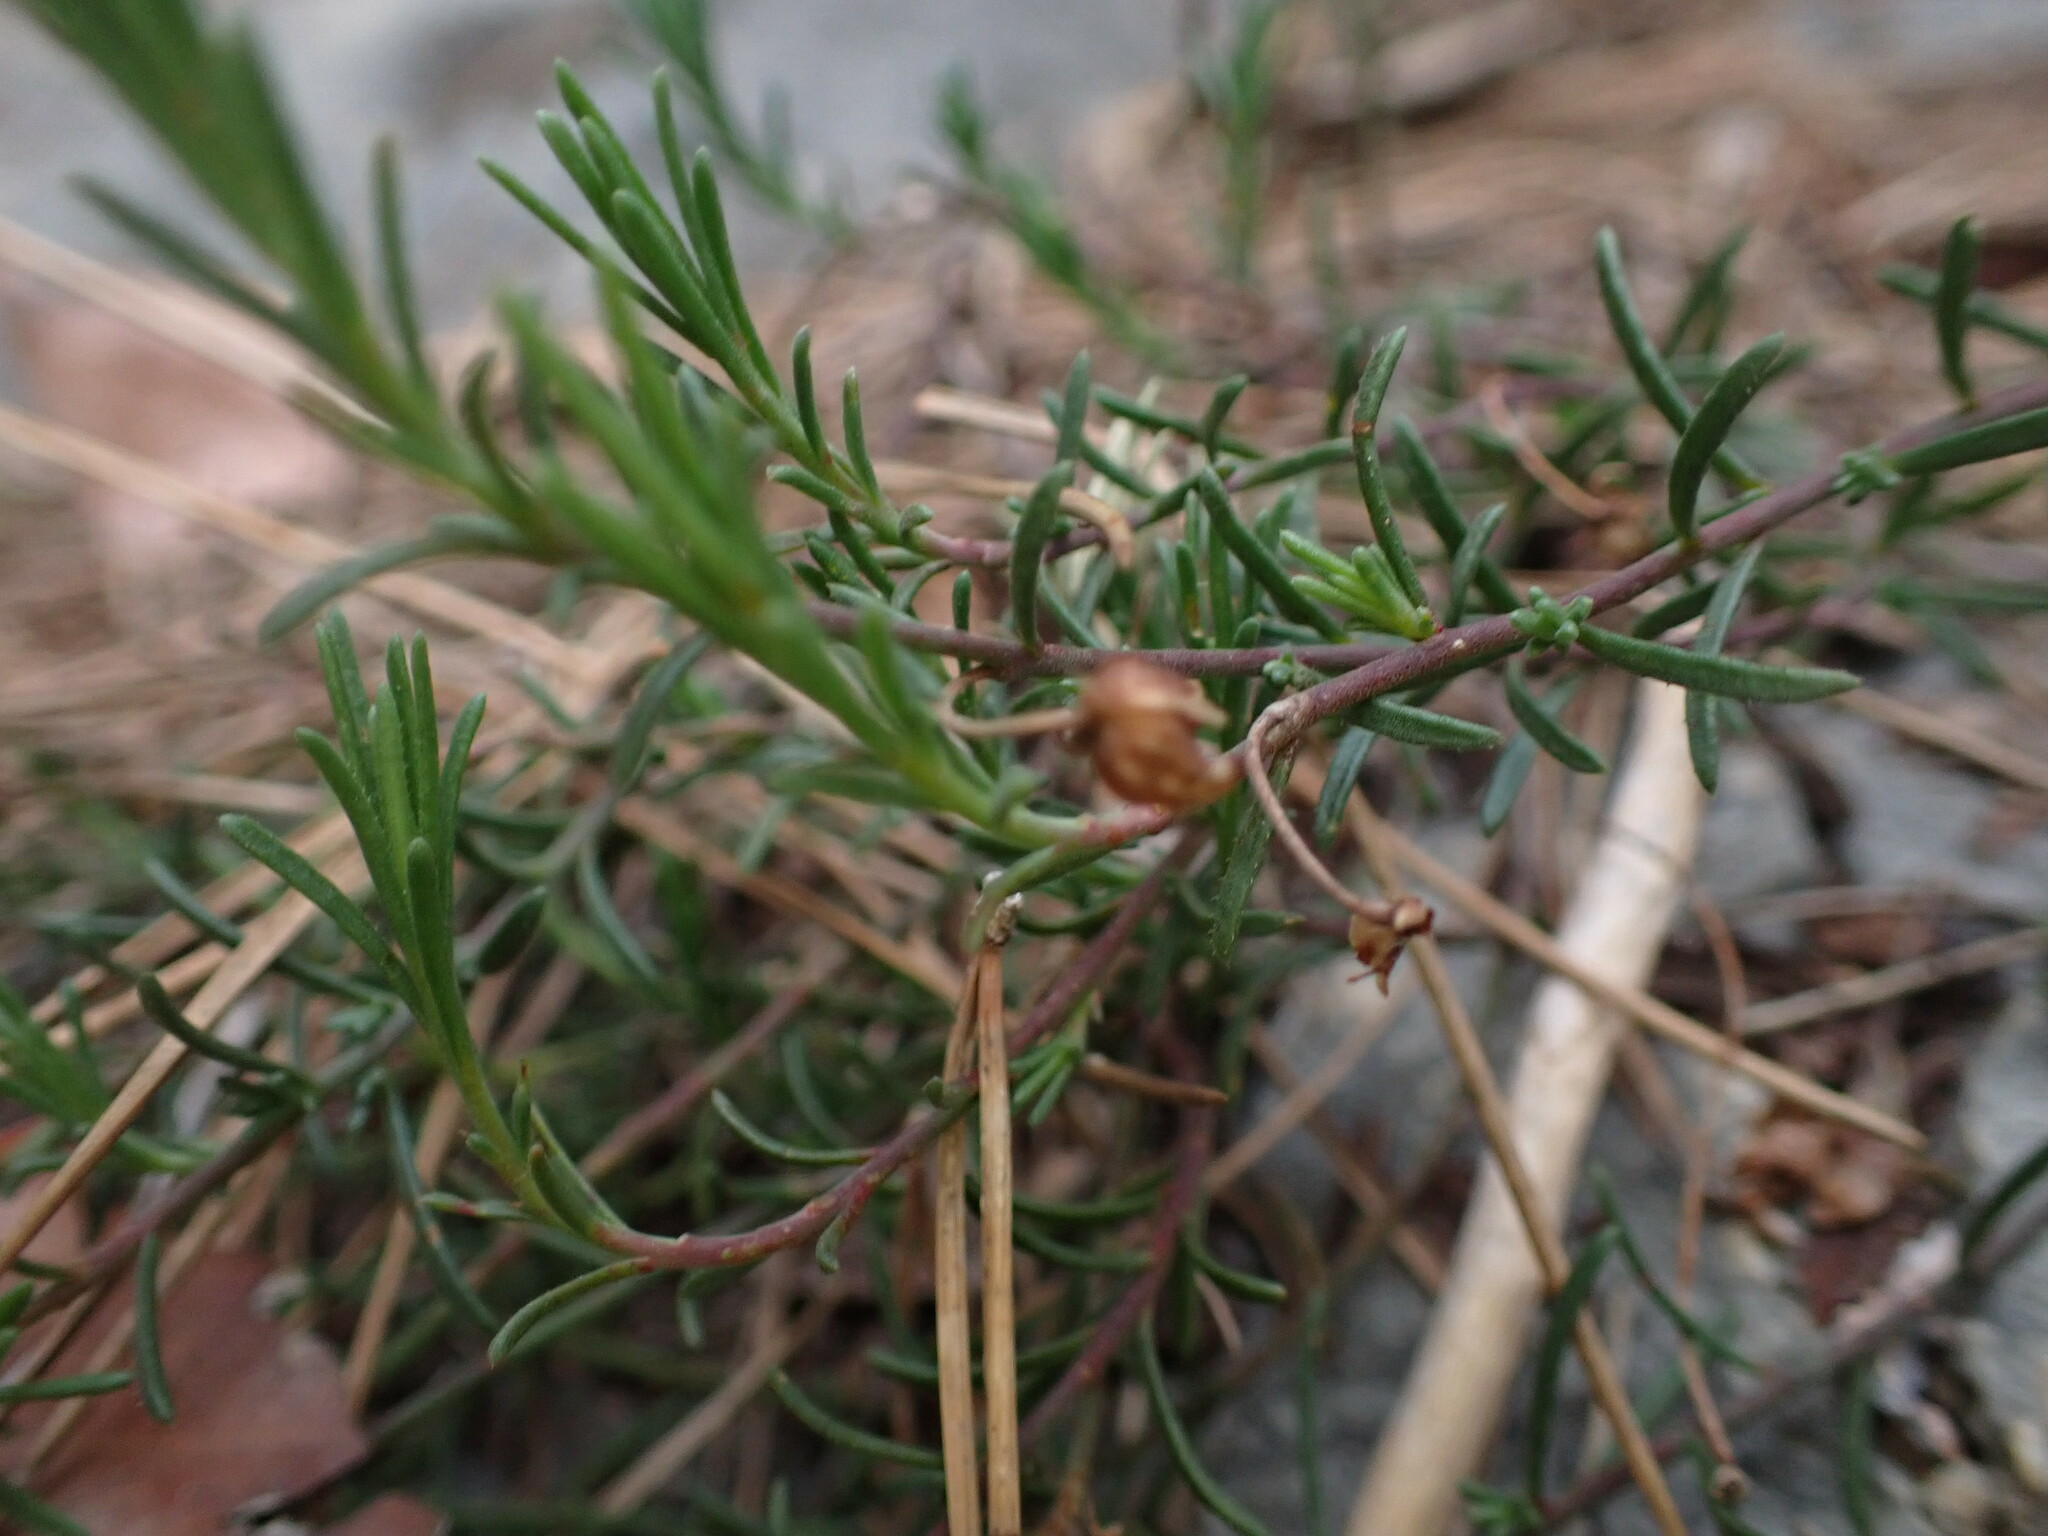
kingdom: Plantae
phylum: Tracheophyta
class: Magnoliopsida
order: Malvales
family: Cistaceae
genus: Fumana
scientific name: Fumana procumbens
